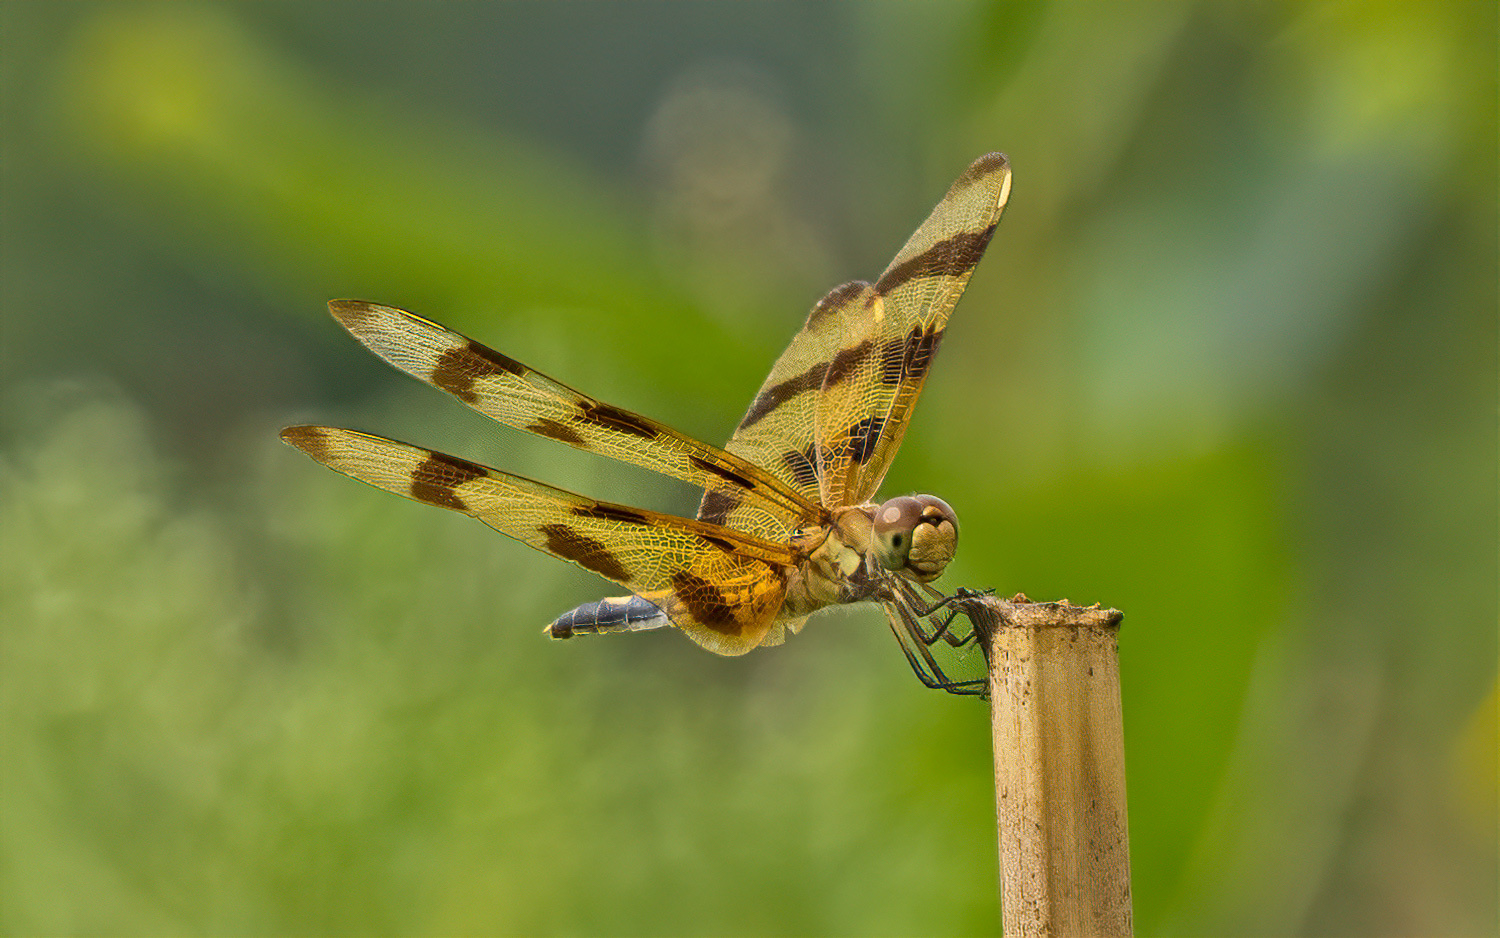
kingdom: Animalia
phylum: Arthropoda
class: Insecta
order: Odonata
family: Libellulidae
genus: Celithemis
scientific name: Celithemis eponina
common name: Halloween pennant
